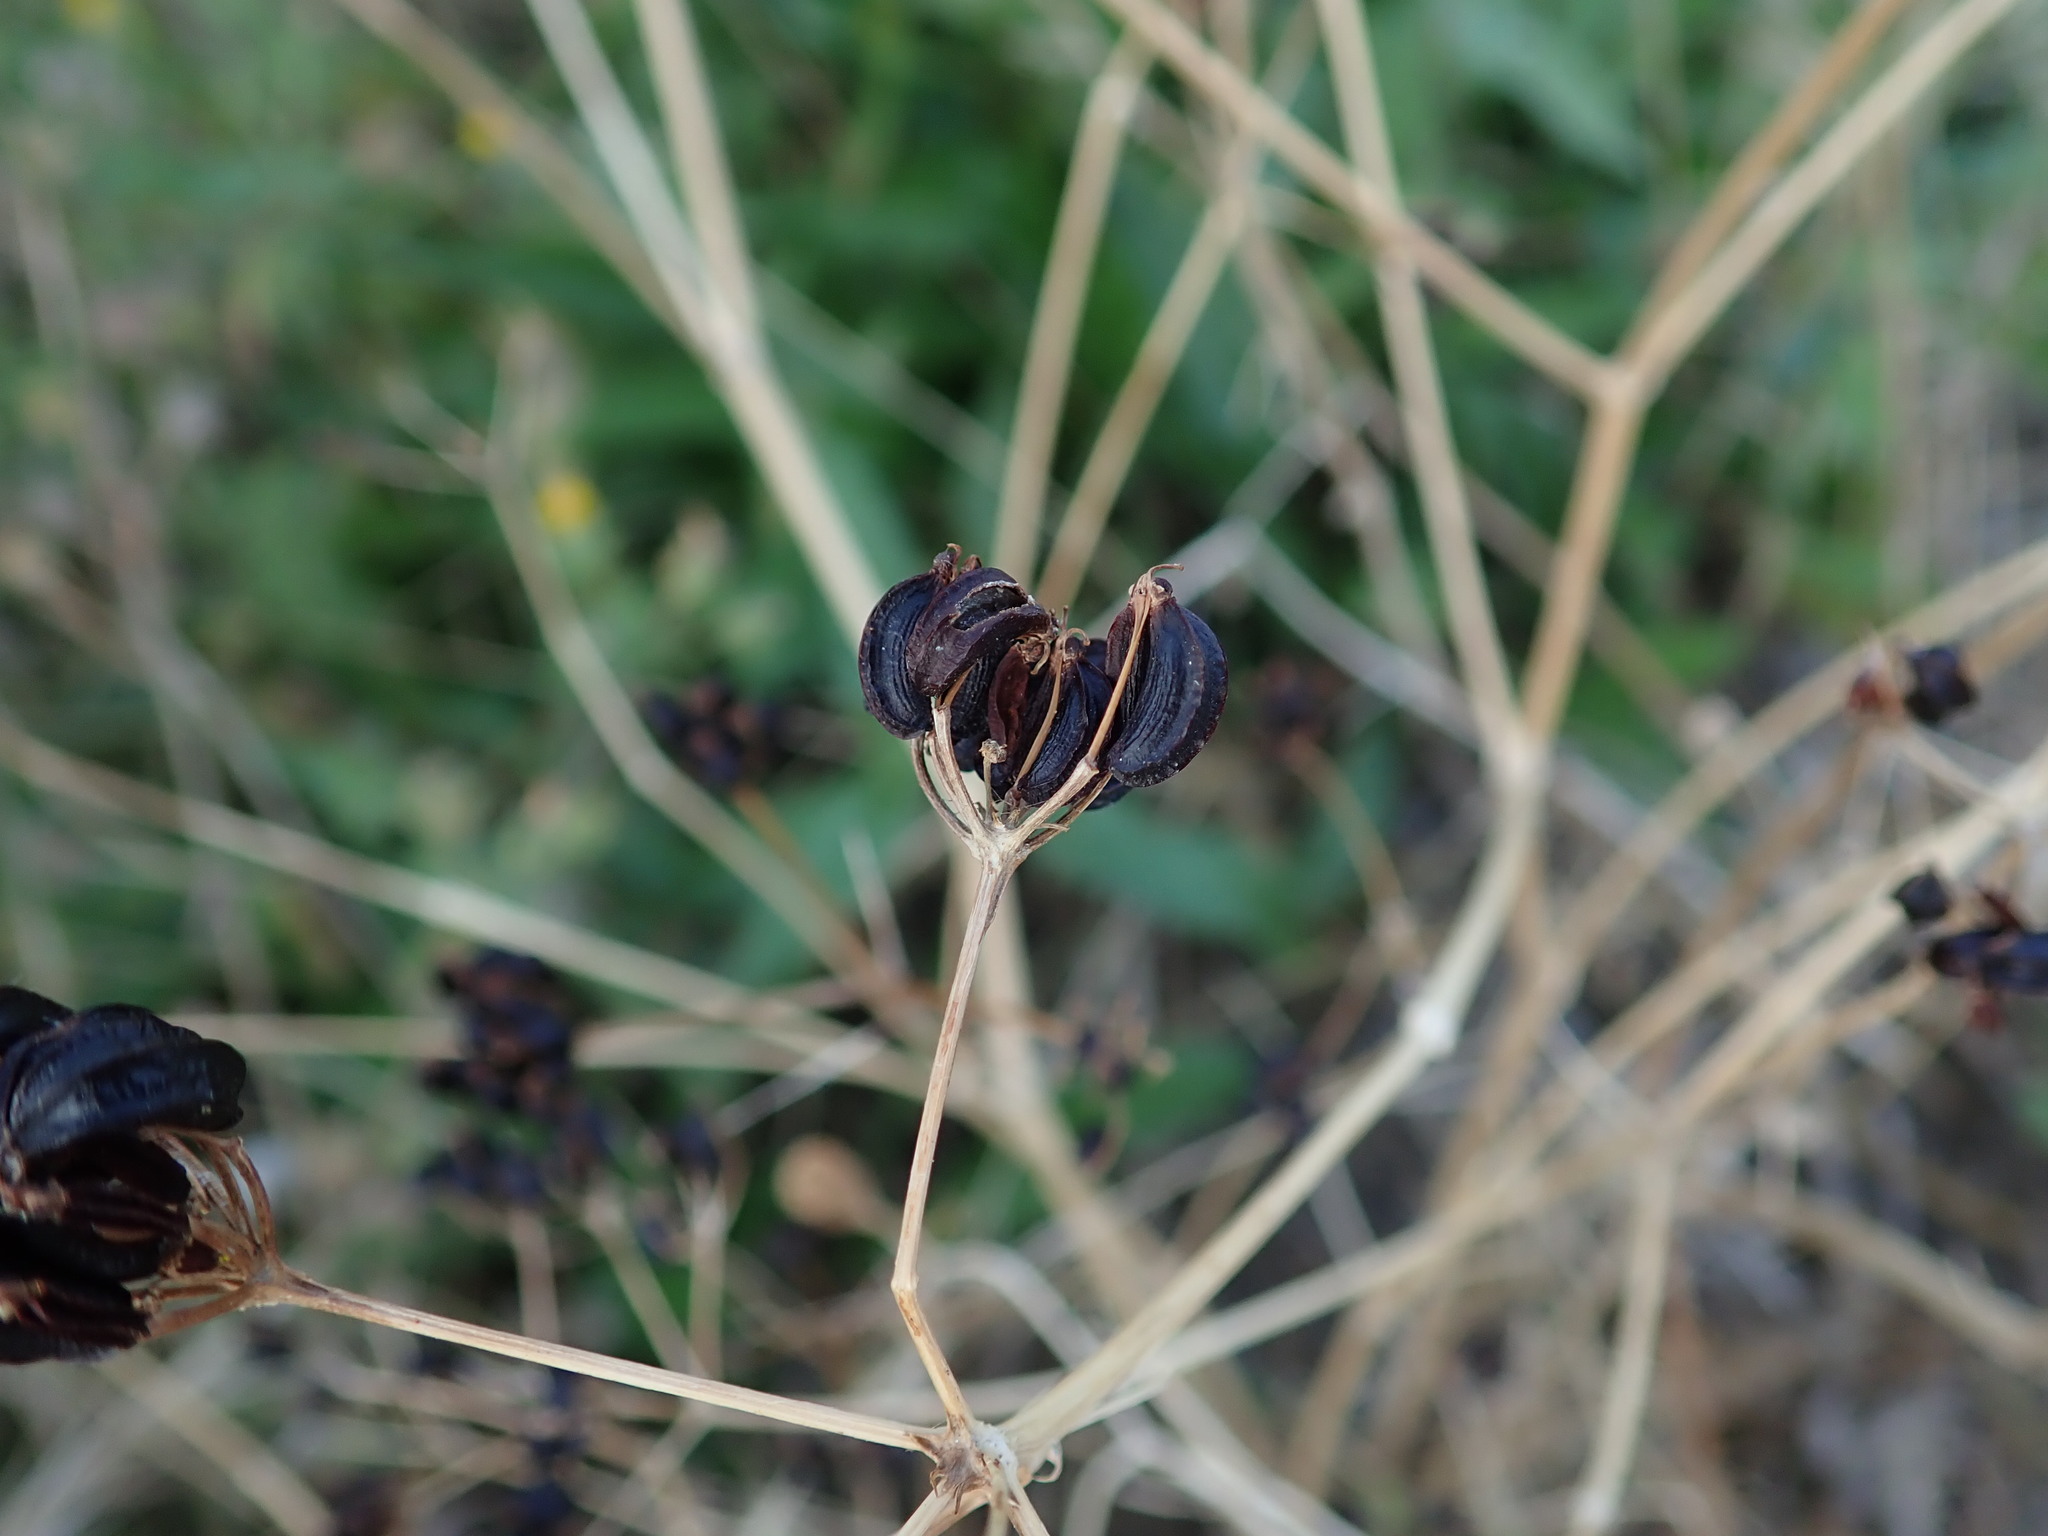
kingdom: Plantae
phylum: Tracheophyta
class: Magnoliopsida
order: Apiales
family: Apiaceae
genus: Smyrnium
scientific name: Smyrnium olusatrum
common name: Alexanders
